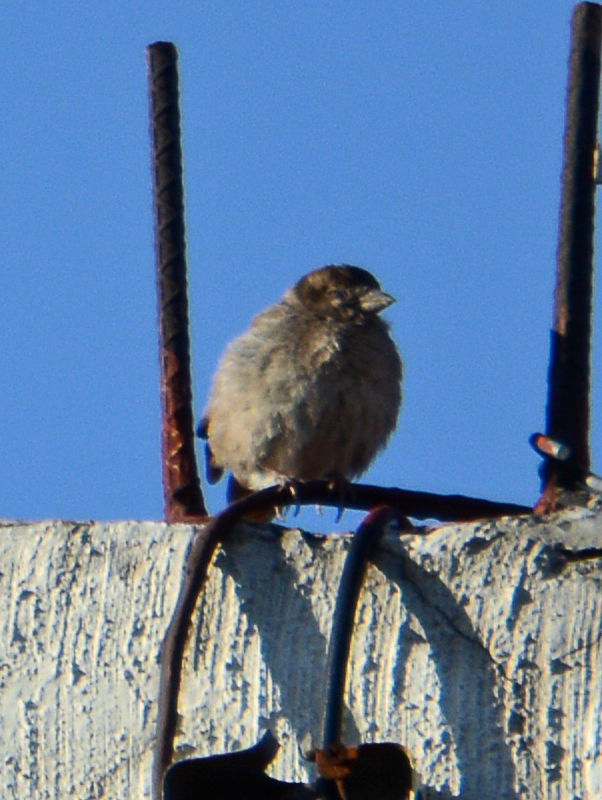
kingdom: Animalia
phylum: Chordata
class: Aves
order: Passeriformes
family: Passeridae
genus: Passer
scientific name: Passer domesticus
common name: House sparrow
